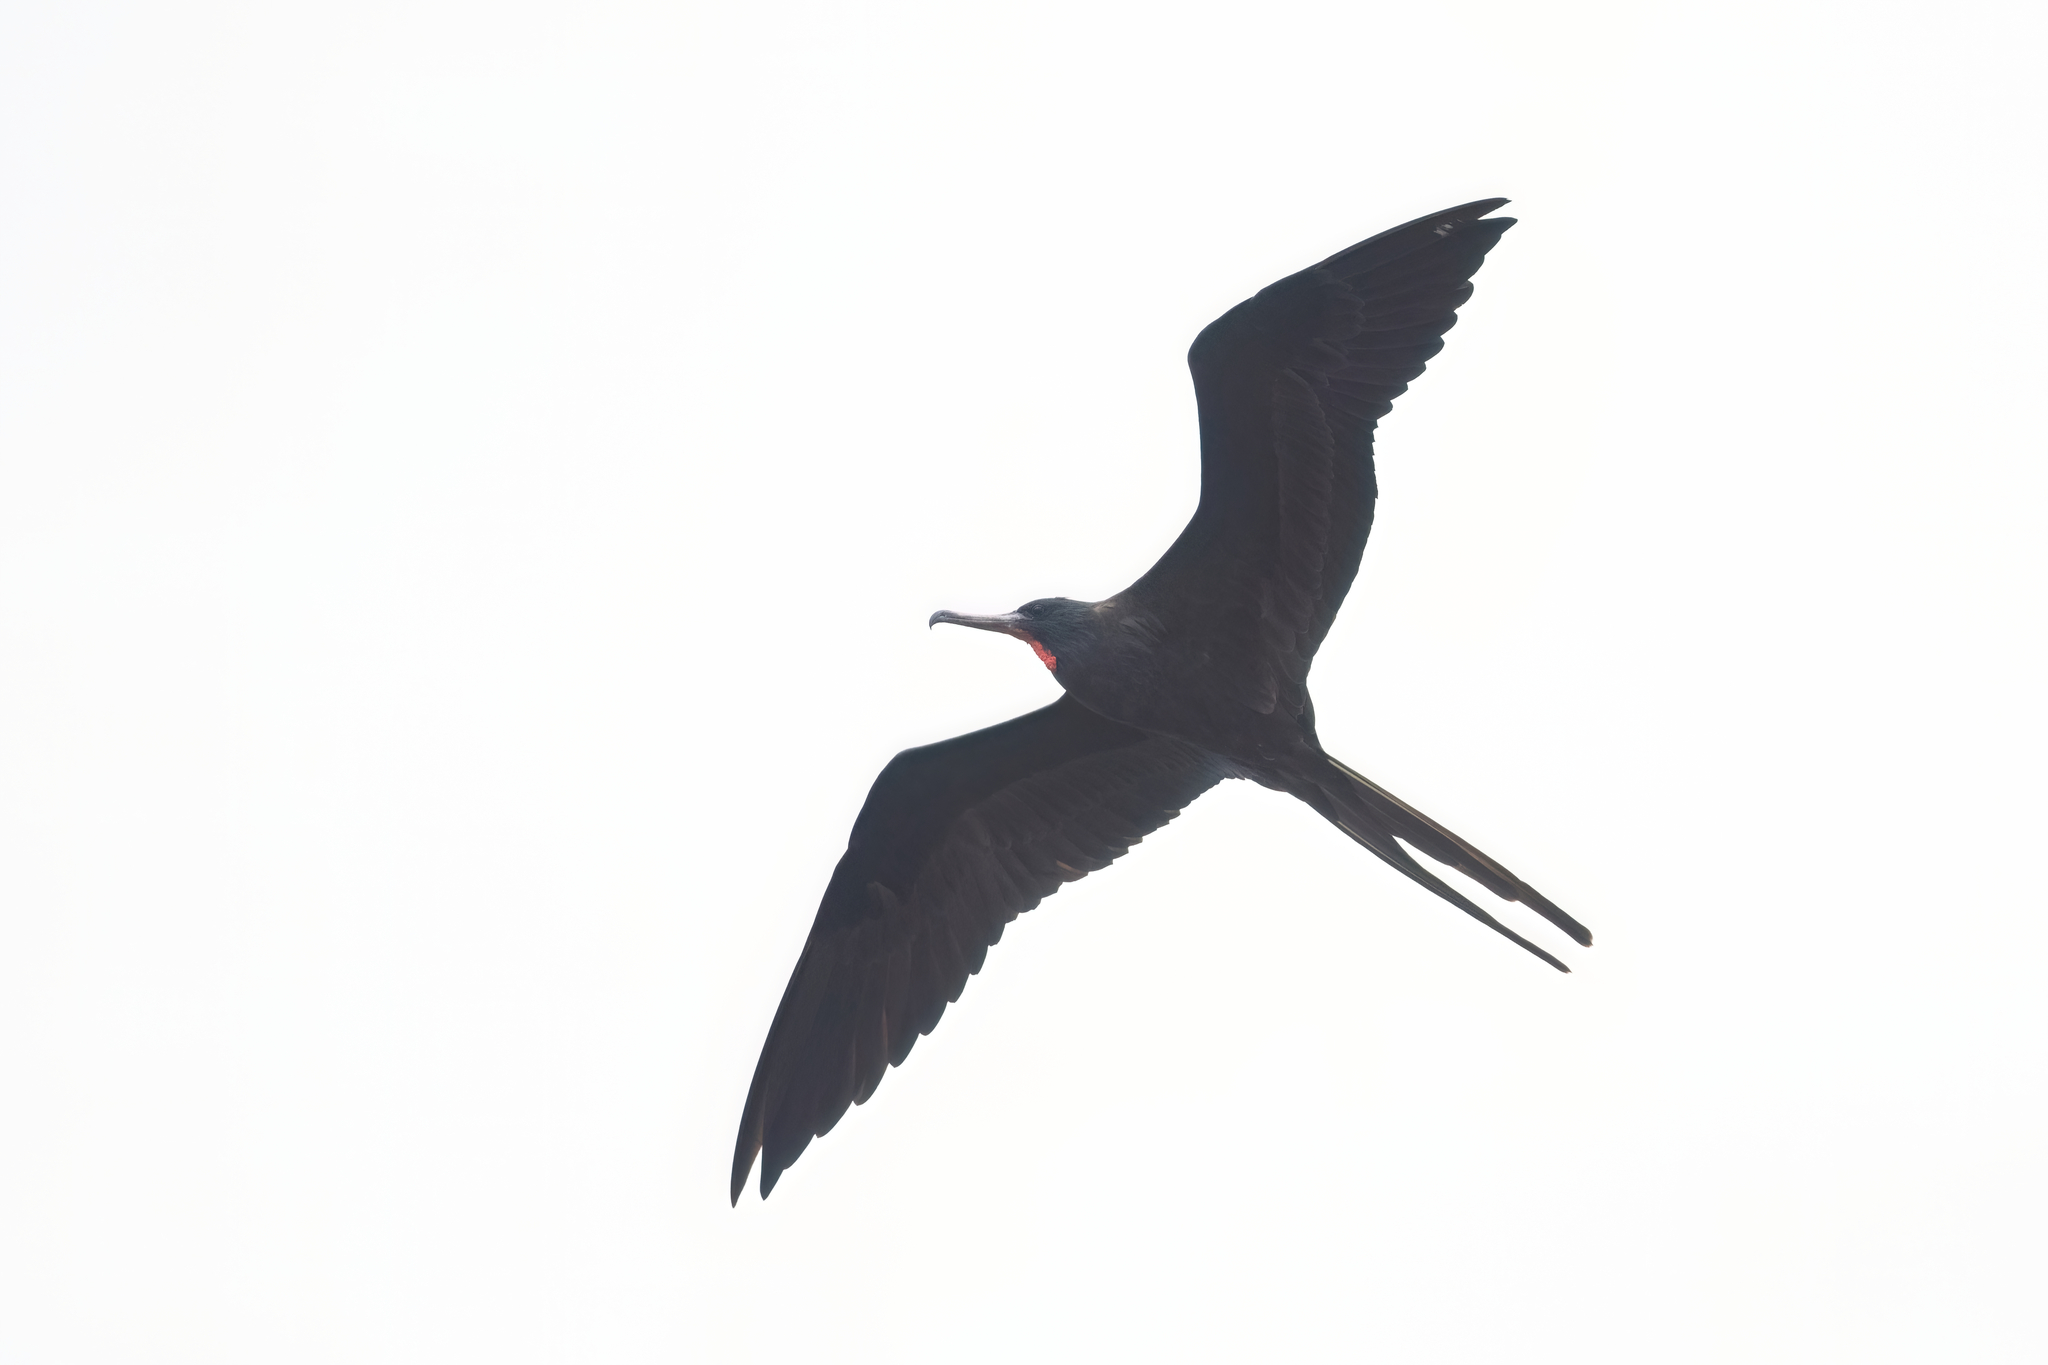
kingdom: Animalia
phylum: Chordata
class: Aves
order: Suliformes
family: Fregatidae
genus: Fregata
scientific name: Fregata magnificens
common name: Magnificent frigatebird
